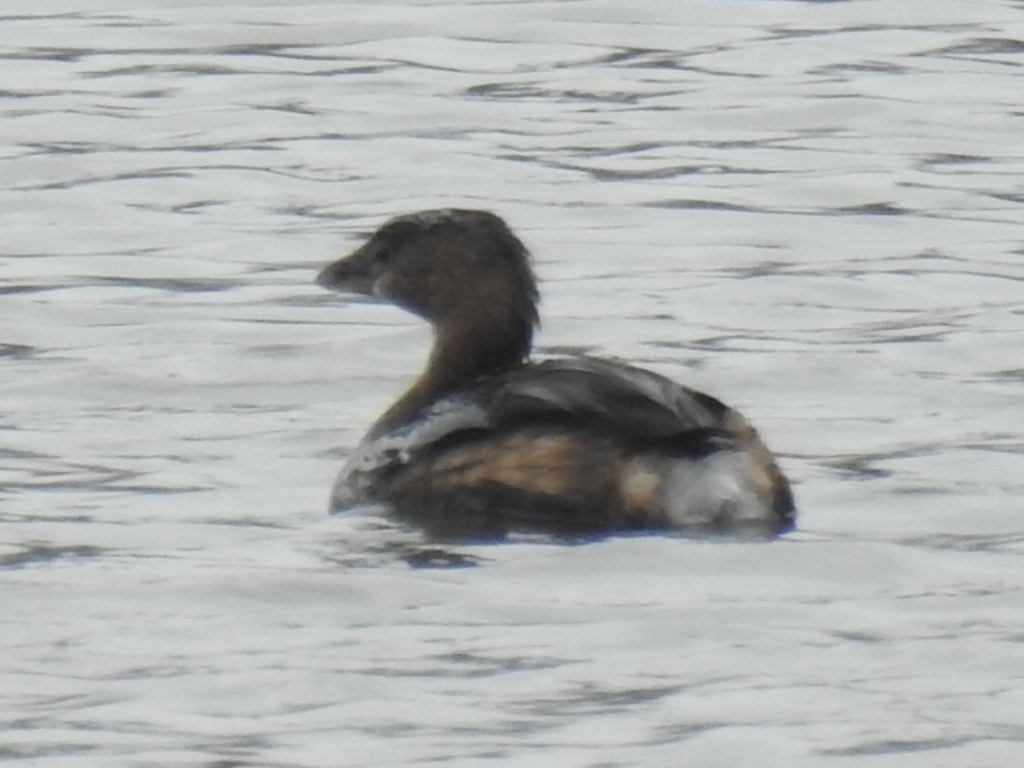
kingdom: Animalia
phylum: Chordata
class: Aves
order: Podicipediformes
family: Podicipedidae
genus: Podilymbus
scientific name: Podilymbus podiceps
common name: Pied-billed grebe
